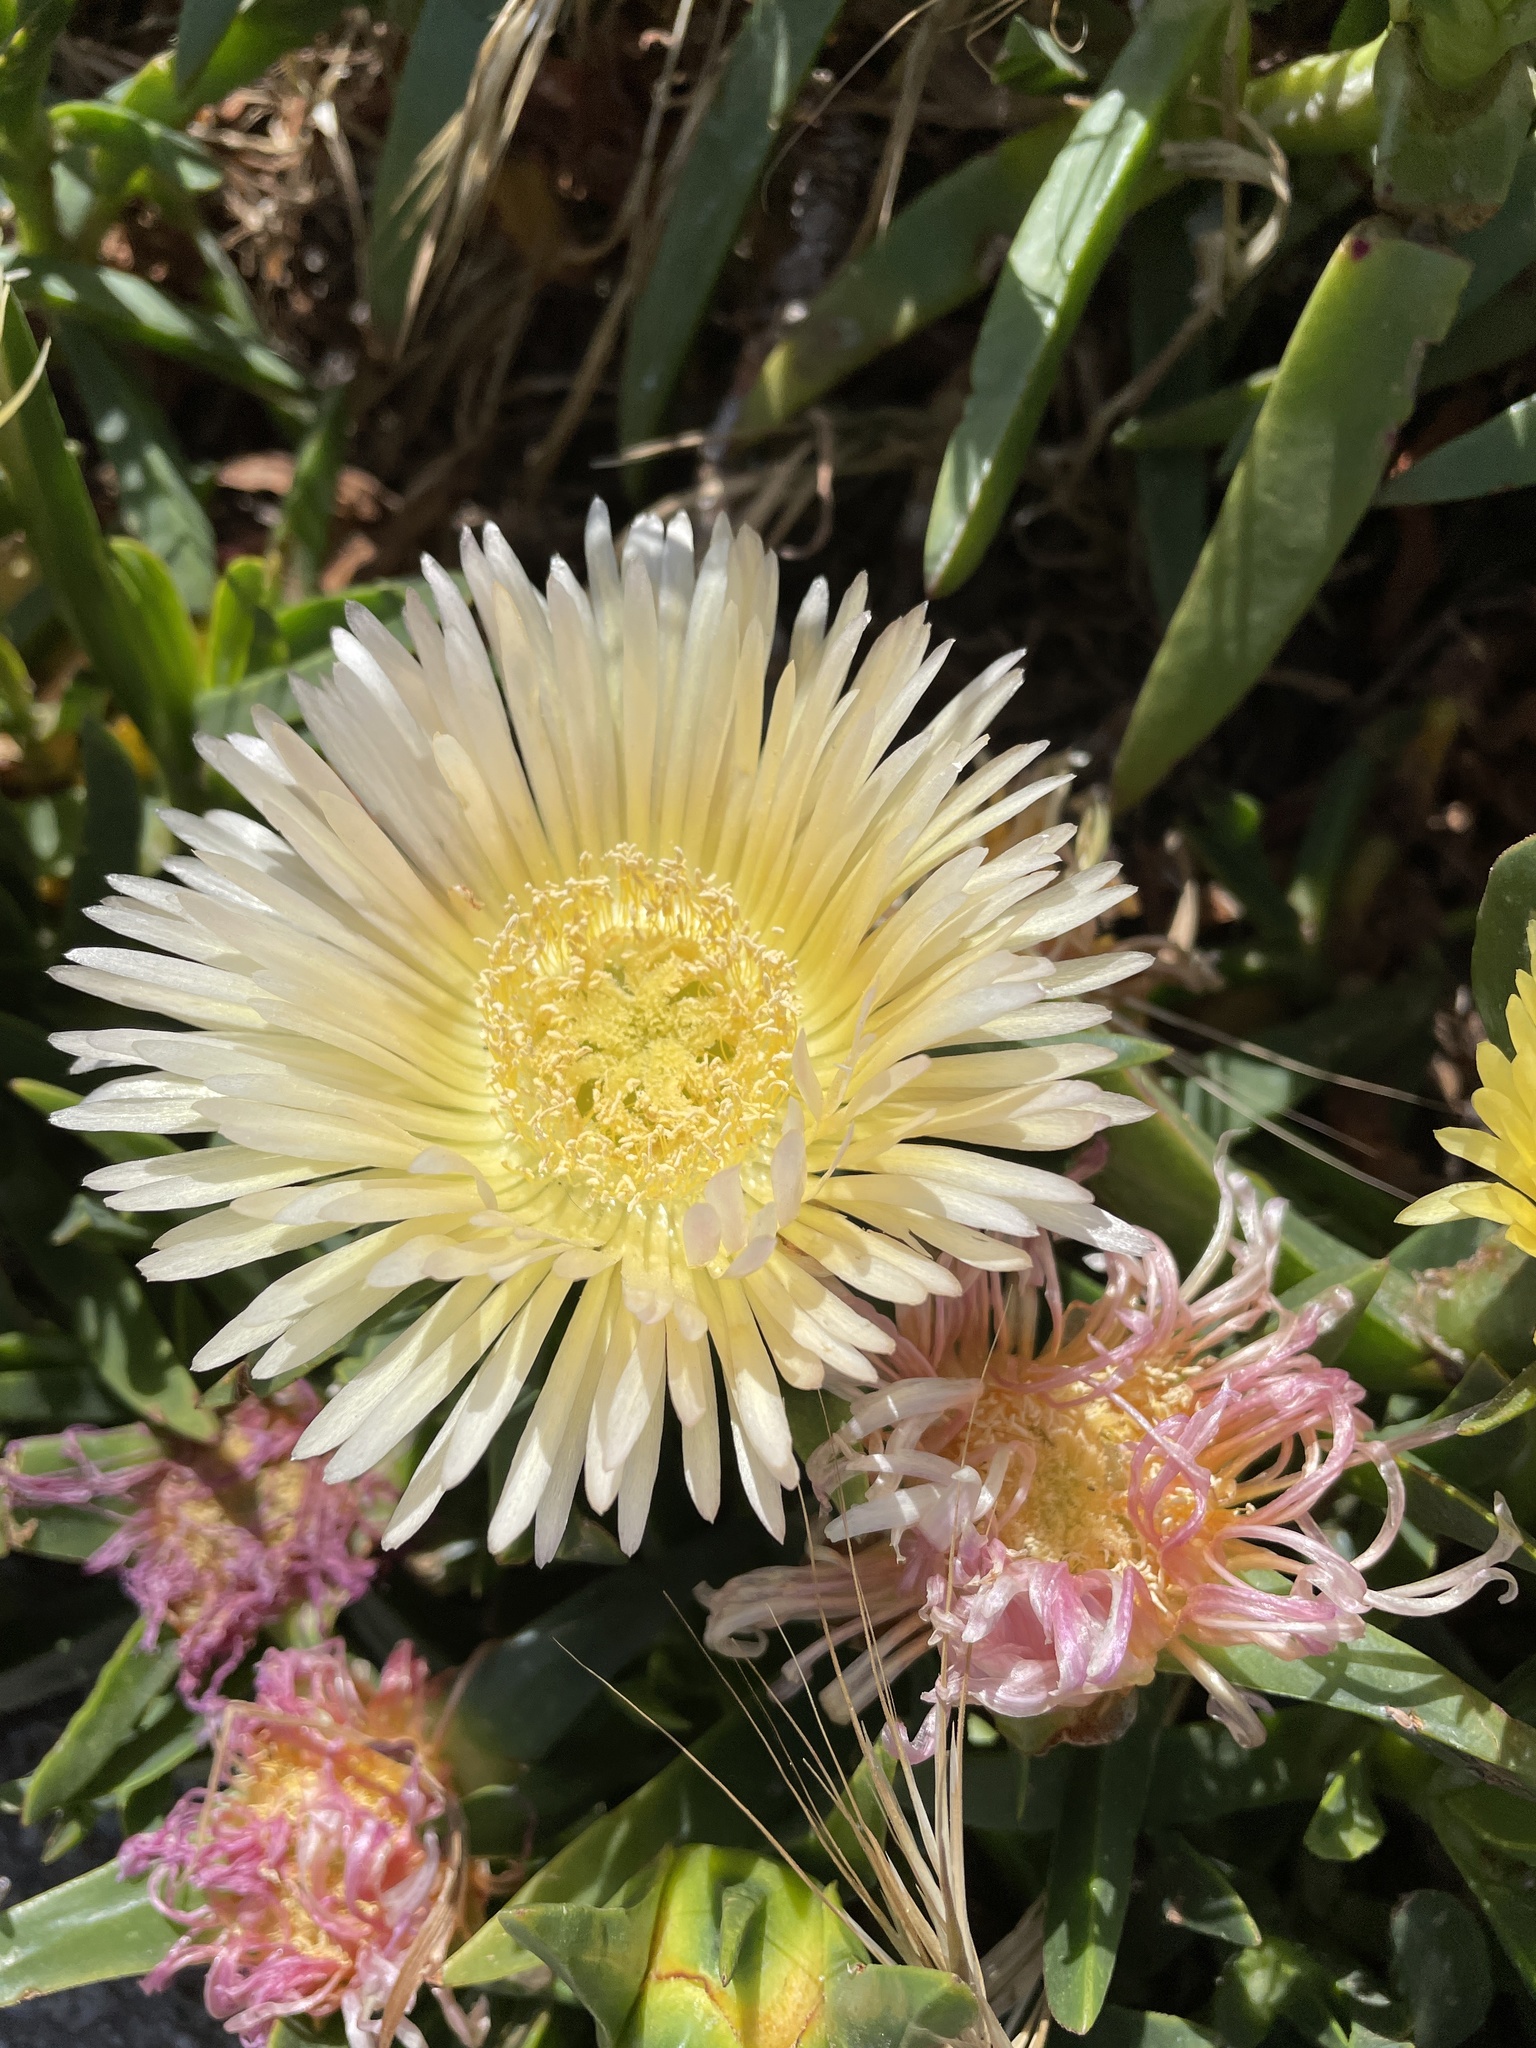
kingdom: Plantae
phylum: Tracheophyta
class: Magnoliopsida
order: Caryophyllales
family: Aizoaceae
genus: Carpobrotus
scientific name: Carpobrotus edulis
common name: Hottentot-fig
